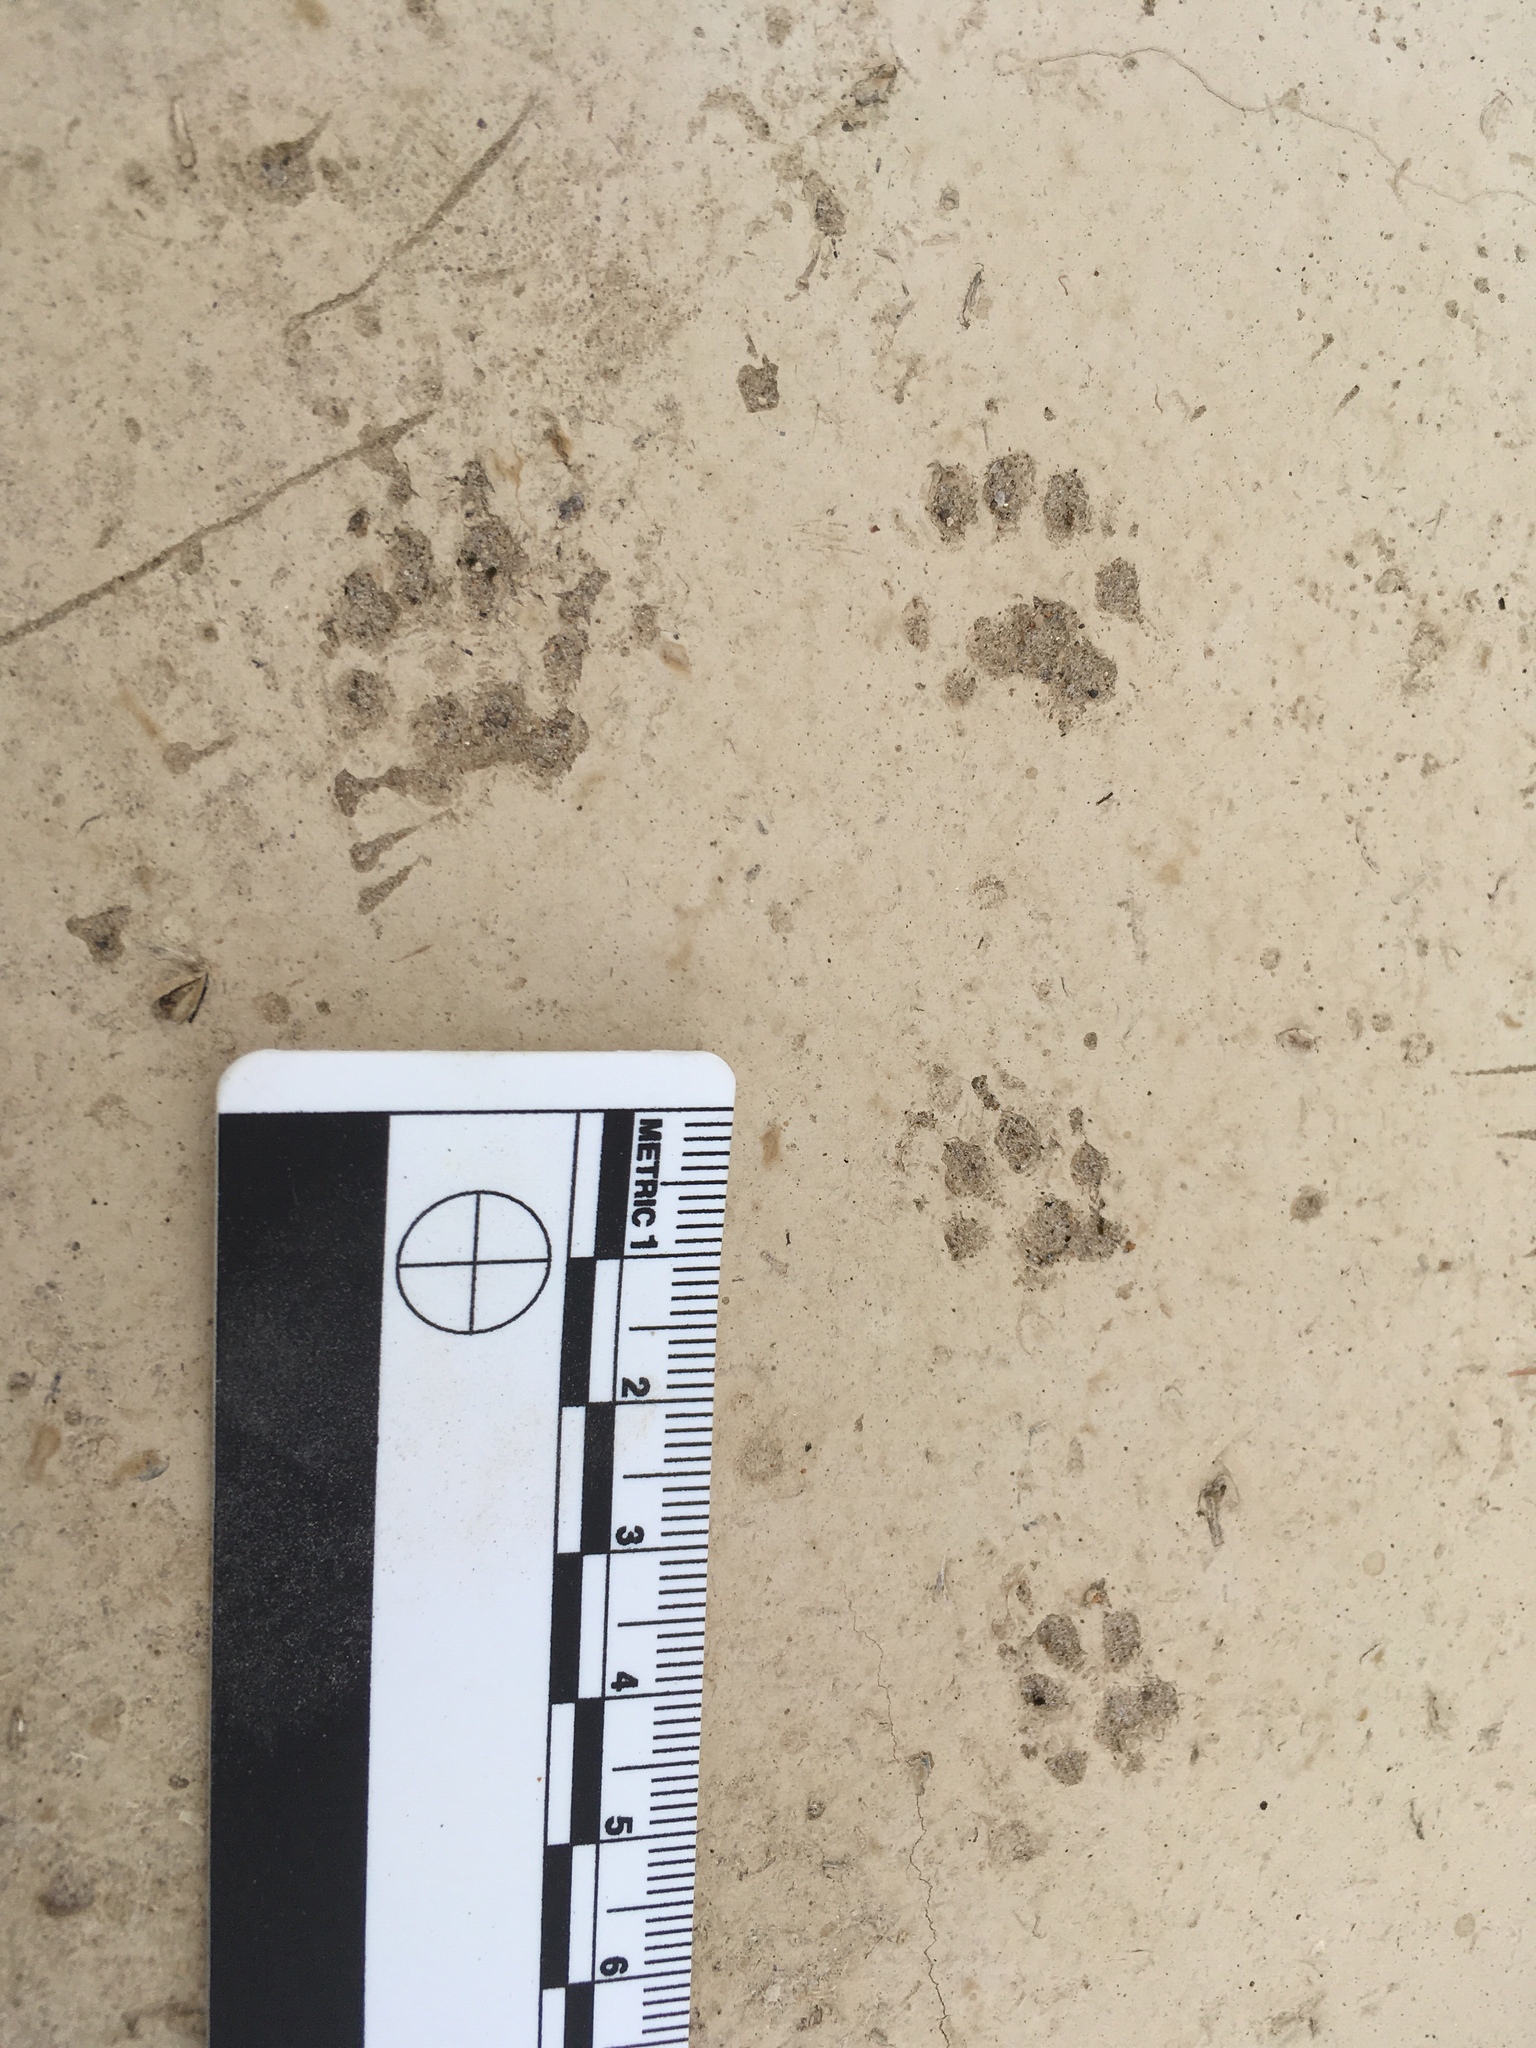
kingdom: Animalia
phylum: Chordata
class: Mammalia
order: Rodentia
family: Sciuridae
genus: Ammospermophilus
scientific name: Ammospermophilus leucurus
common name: White-tailed antelope squirrel
